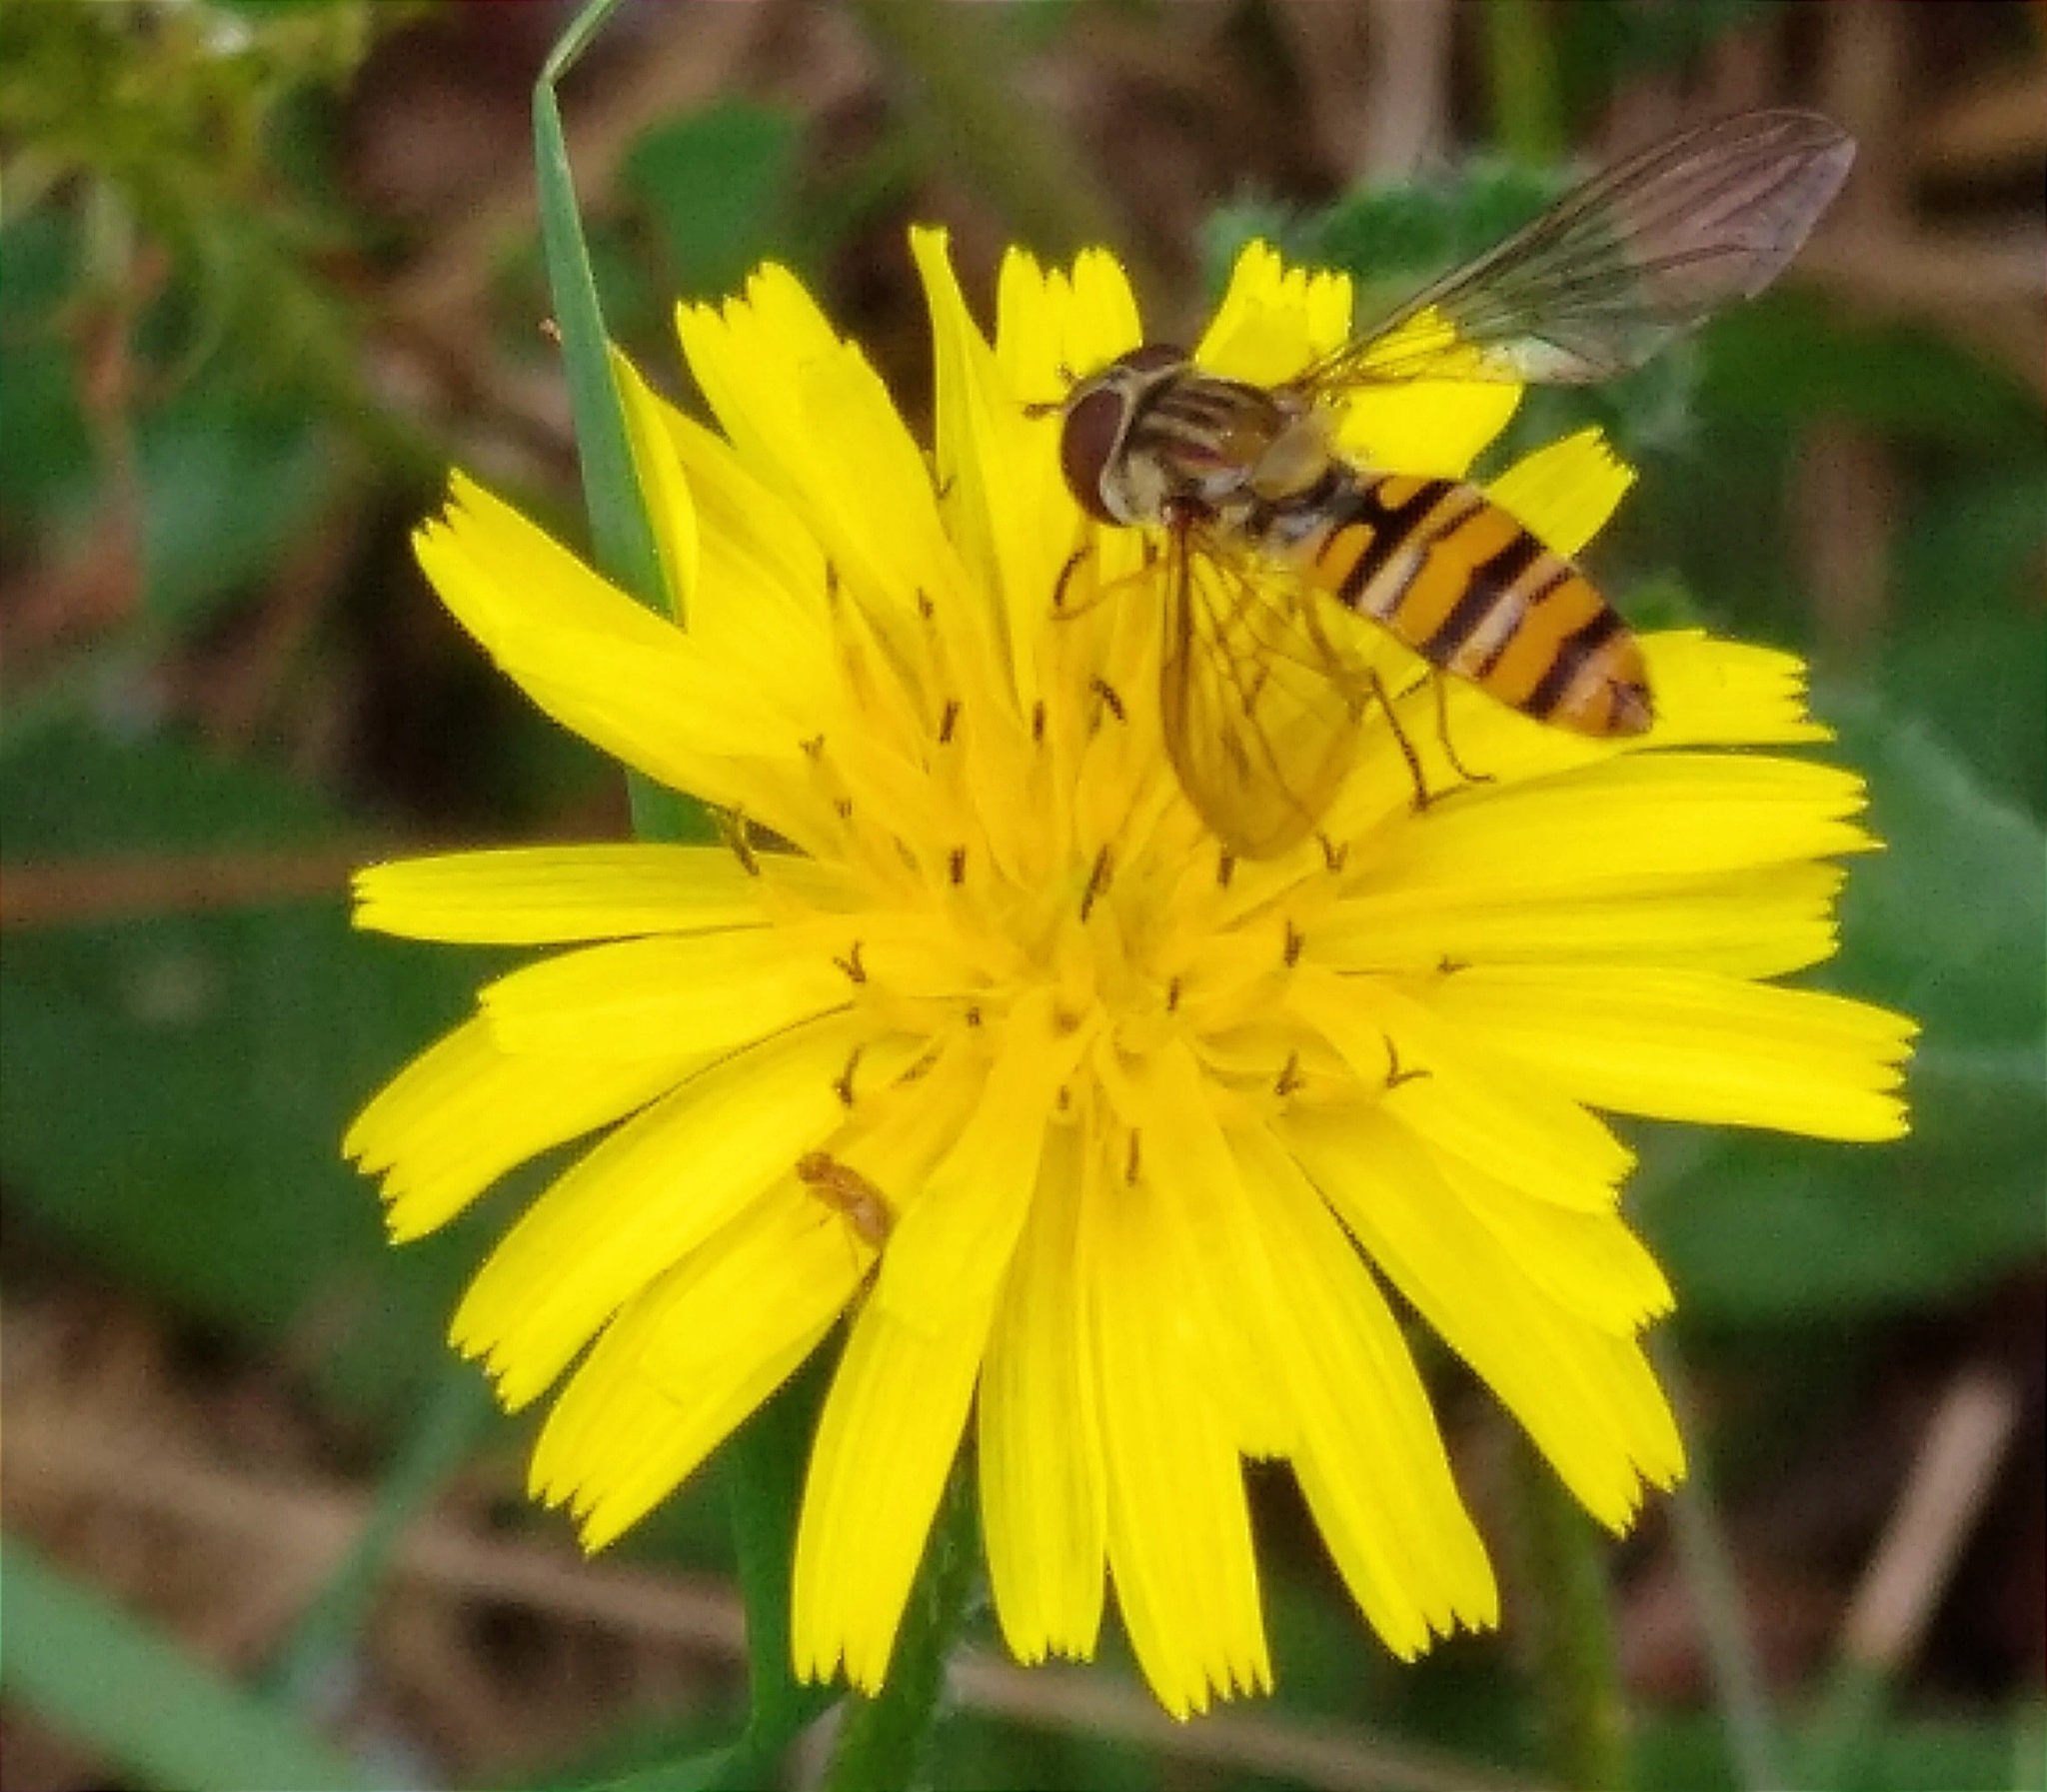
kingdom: Animalia
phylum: Arthropoda
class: Insecta
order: Diptera
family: Syrphidae
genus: Episyrphus
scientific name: Episyrphus balteatus
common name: Marmalade hoverfly
